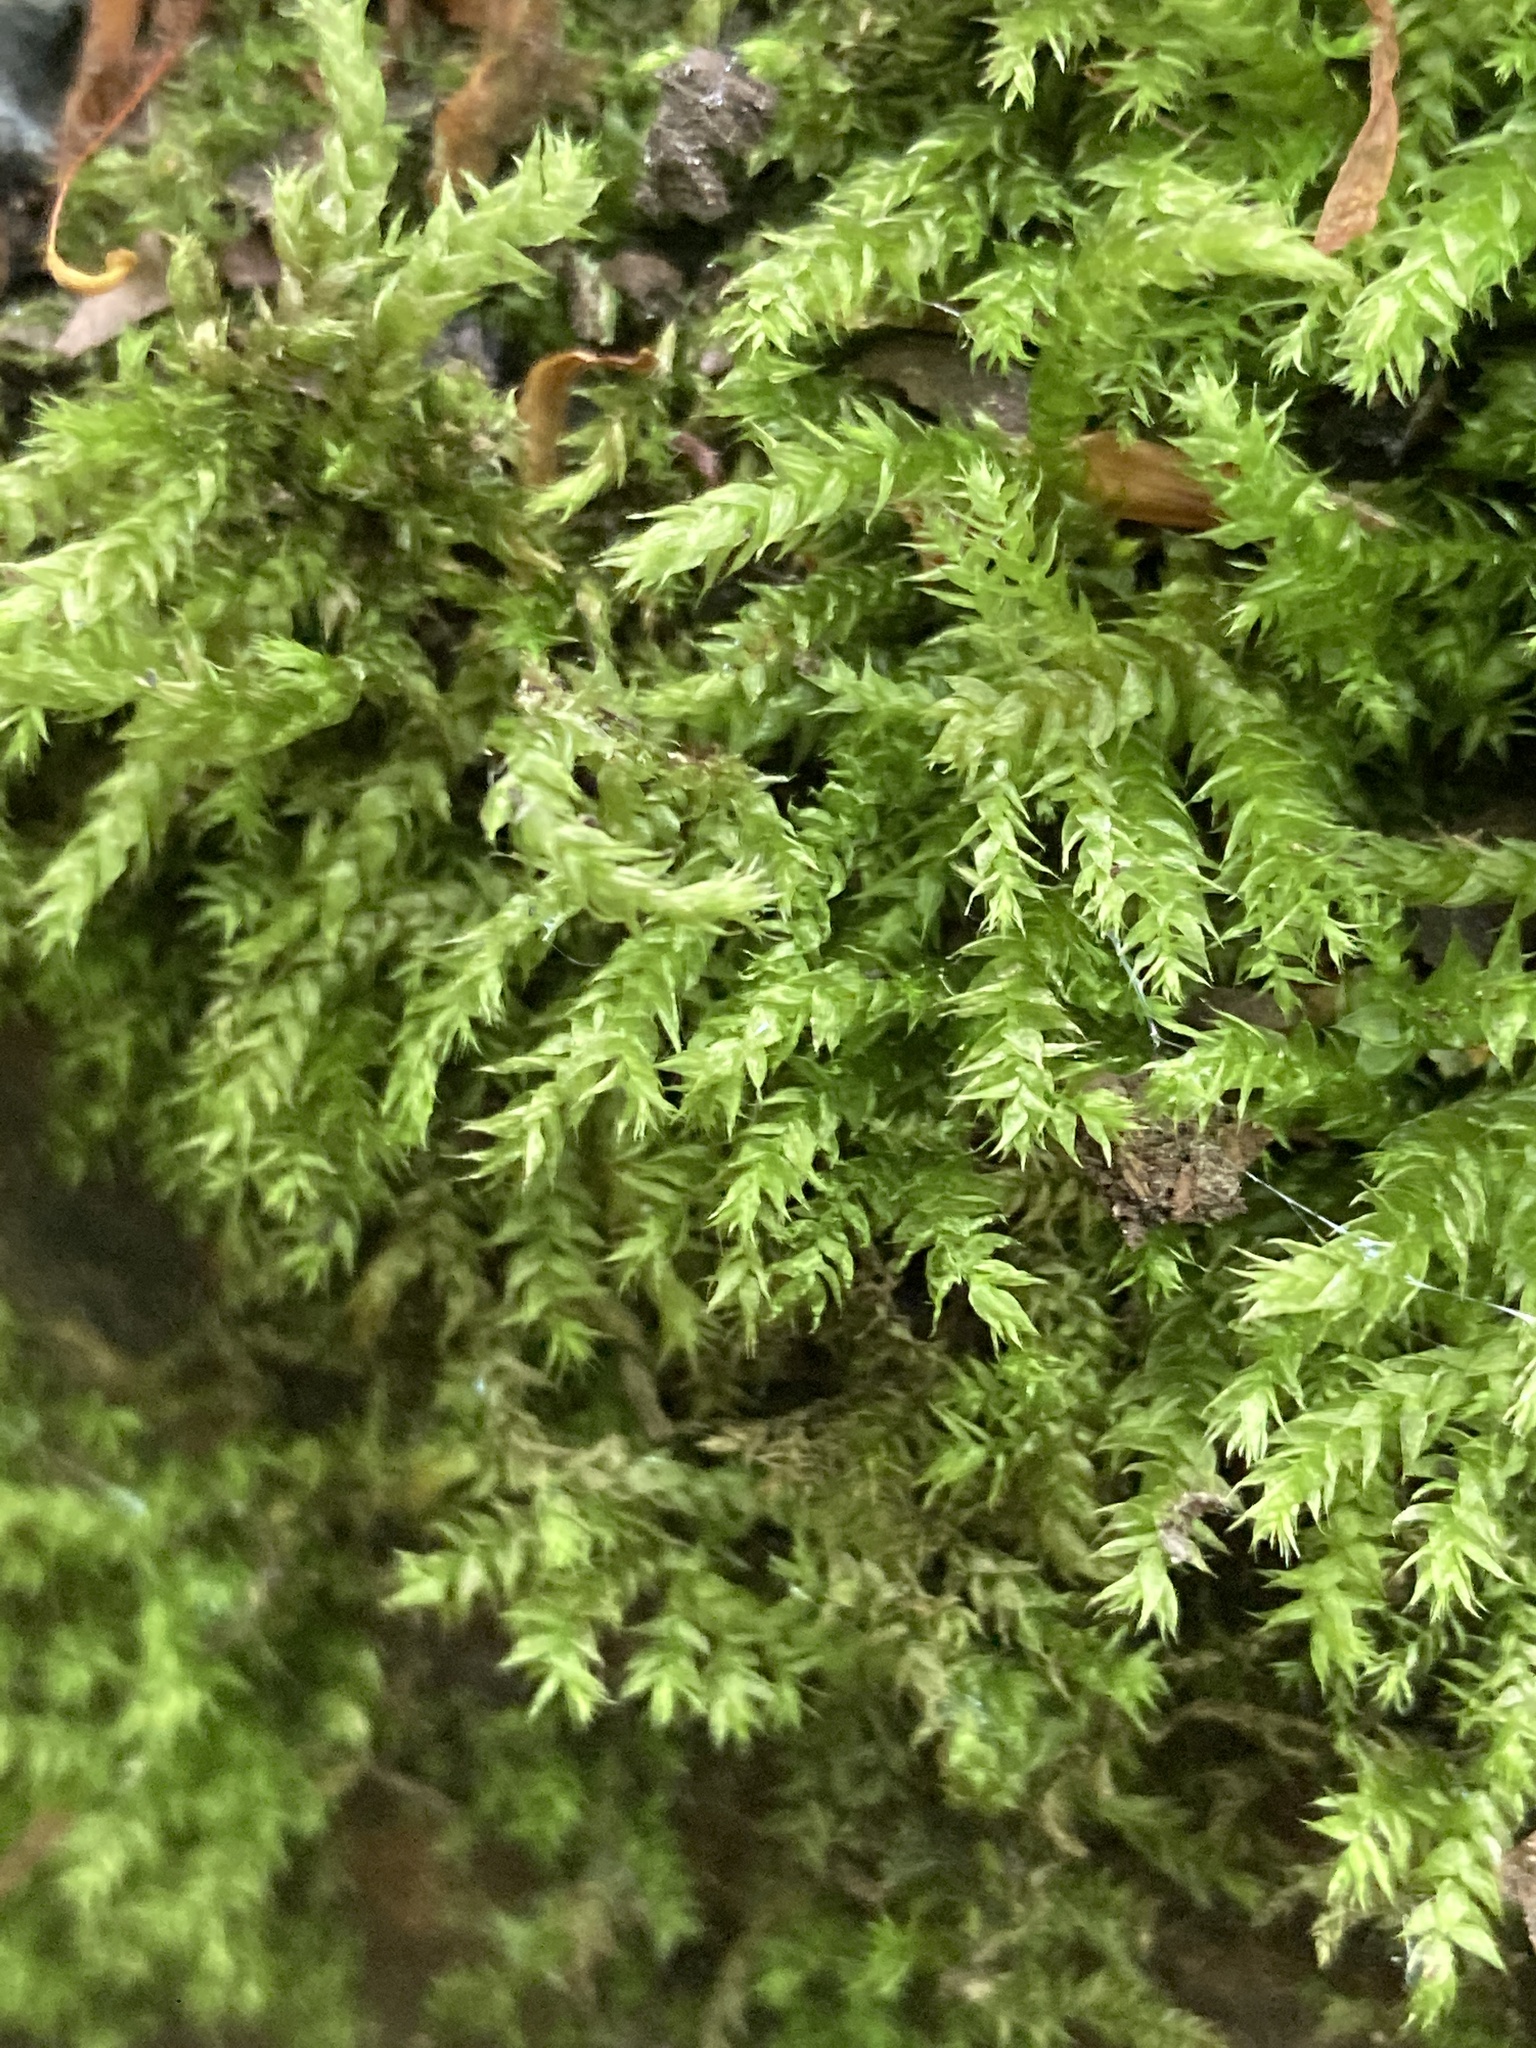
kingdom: Plantae
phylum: Bryophyta
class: Bryopsida
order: Hypnales
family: Brachytheciaceae
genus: Brachythecium
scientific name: Brachythecium rutabulum
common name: Rough-stalked feather-moss
